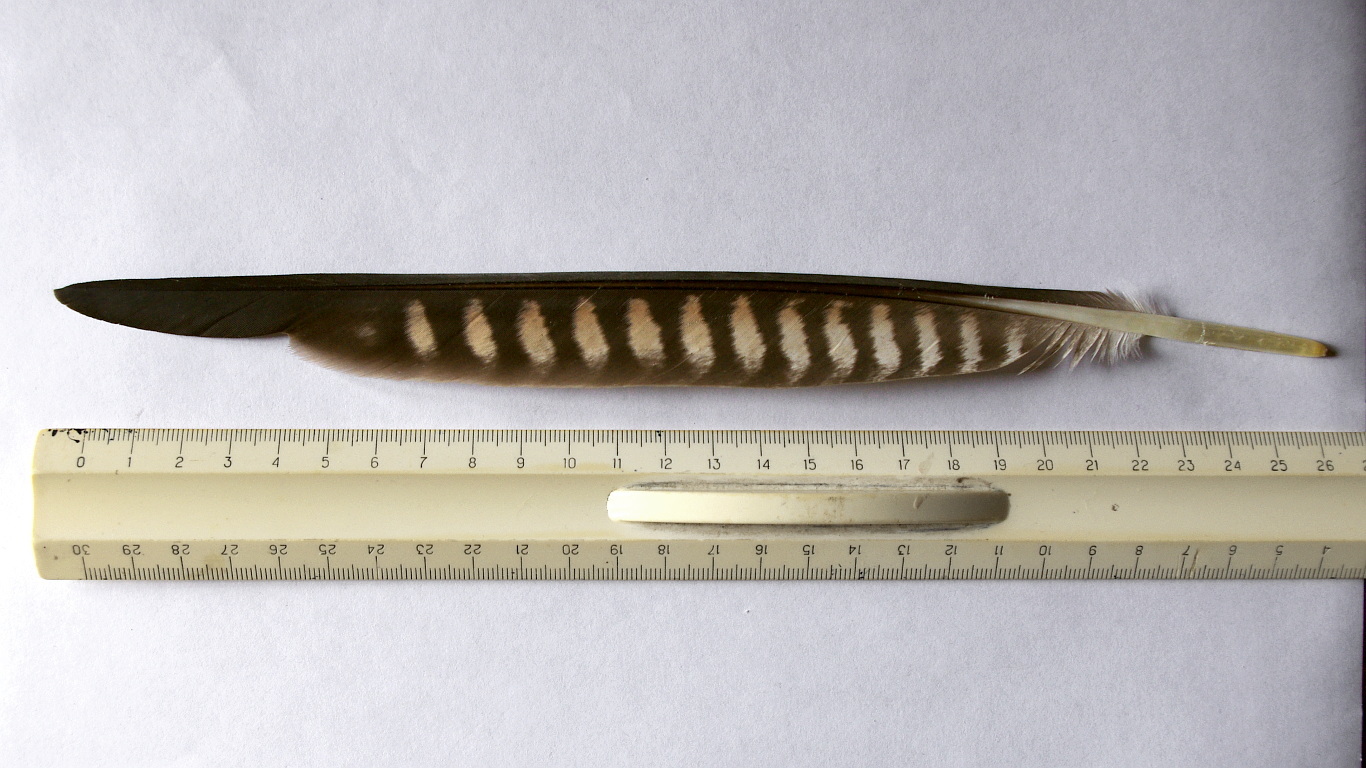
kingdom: Animalia
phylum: Chordata
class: Aves
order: Falconiformes
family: Falconidae
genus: Falco
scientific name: Falco peregrinus
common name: Peregrine falcon
